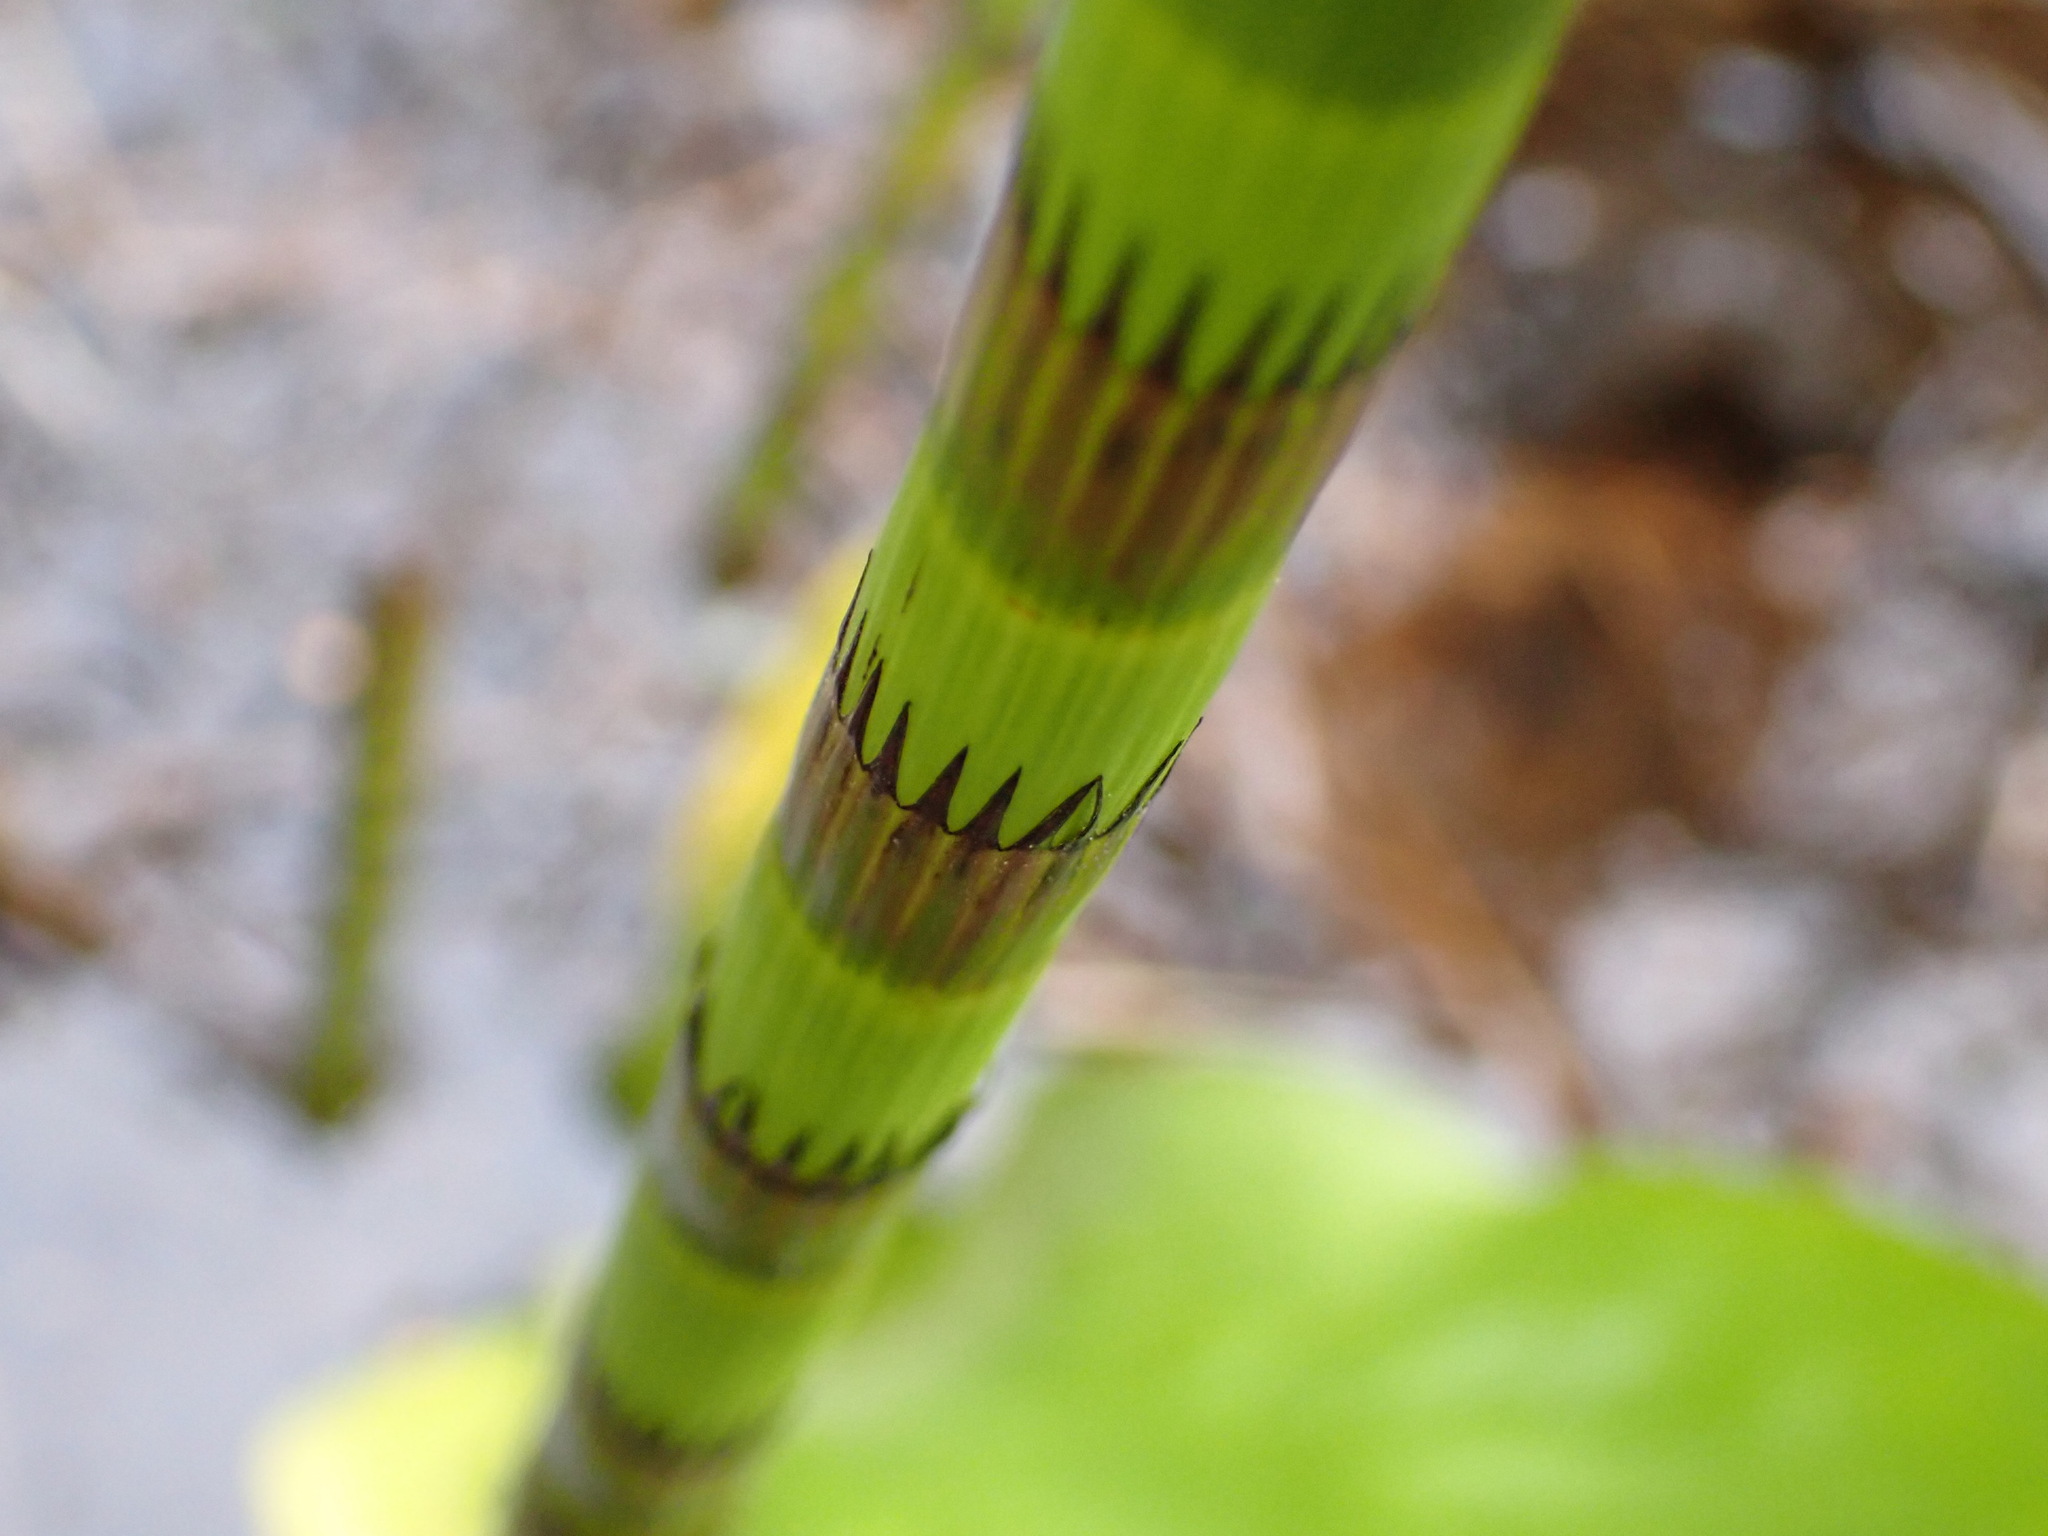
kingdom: Plantae
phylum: Tracheophyta
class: Polypodiopsida
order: Equisetales
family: Equisetaceae
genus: Equisetum
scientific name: Equisetum fluviatile
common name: Water horsetail
